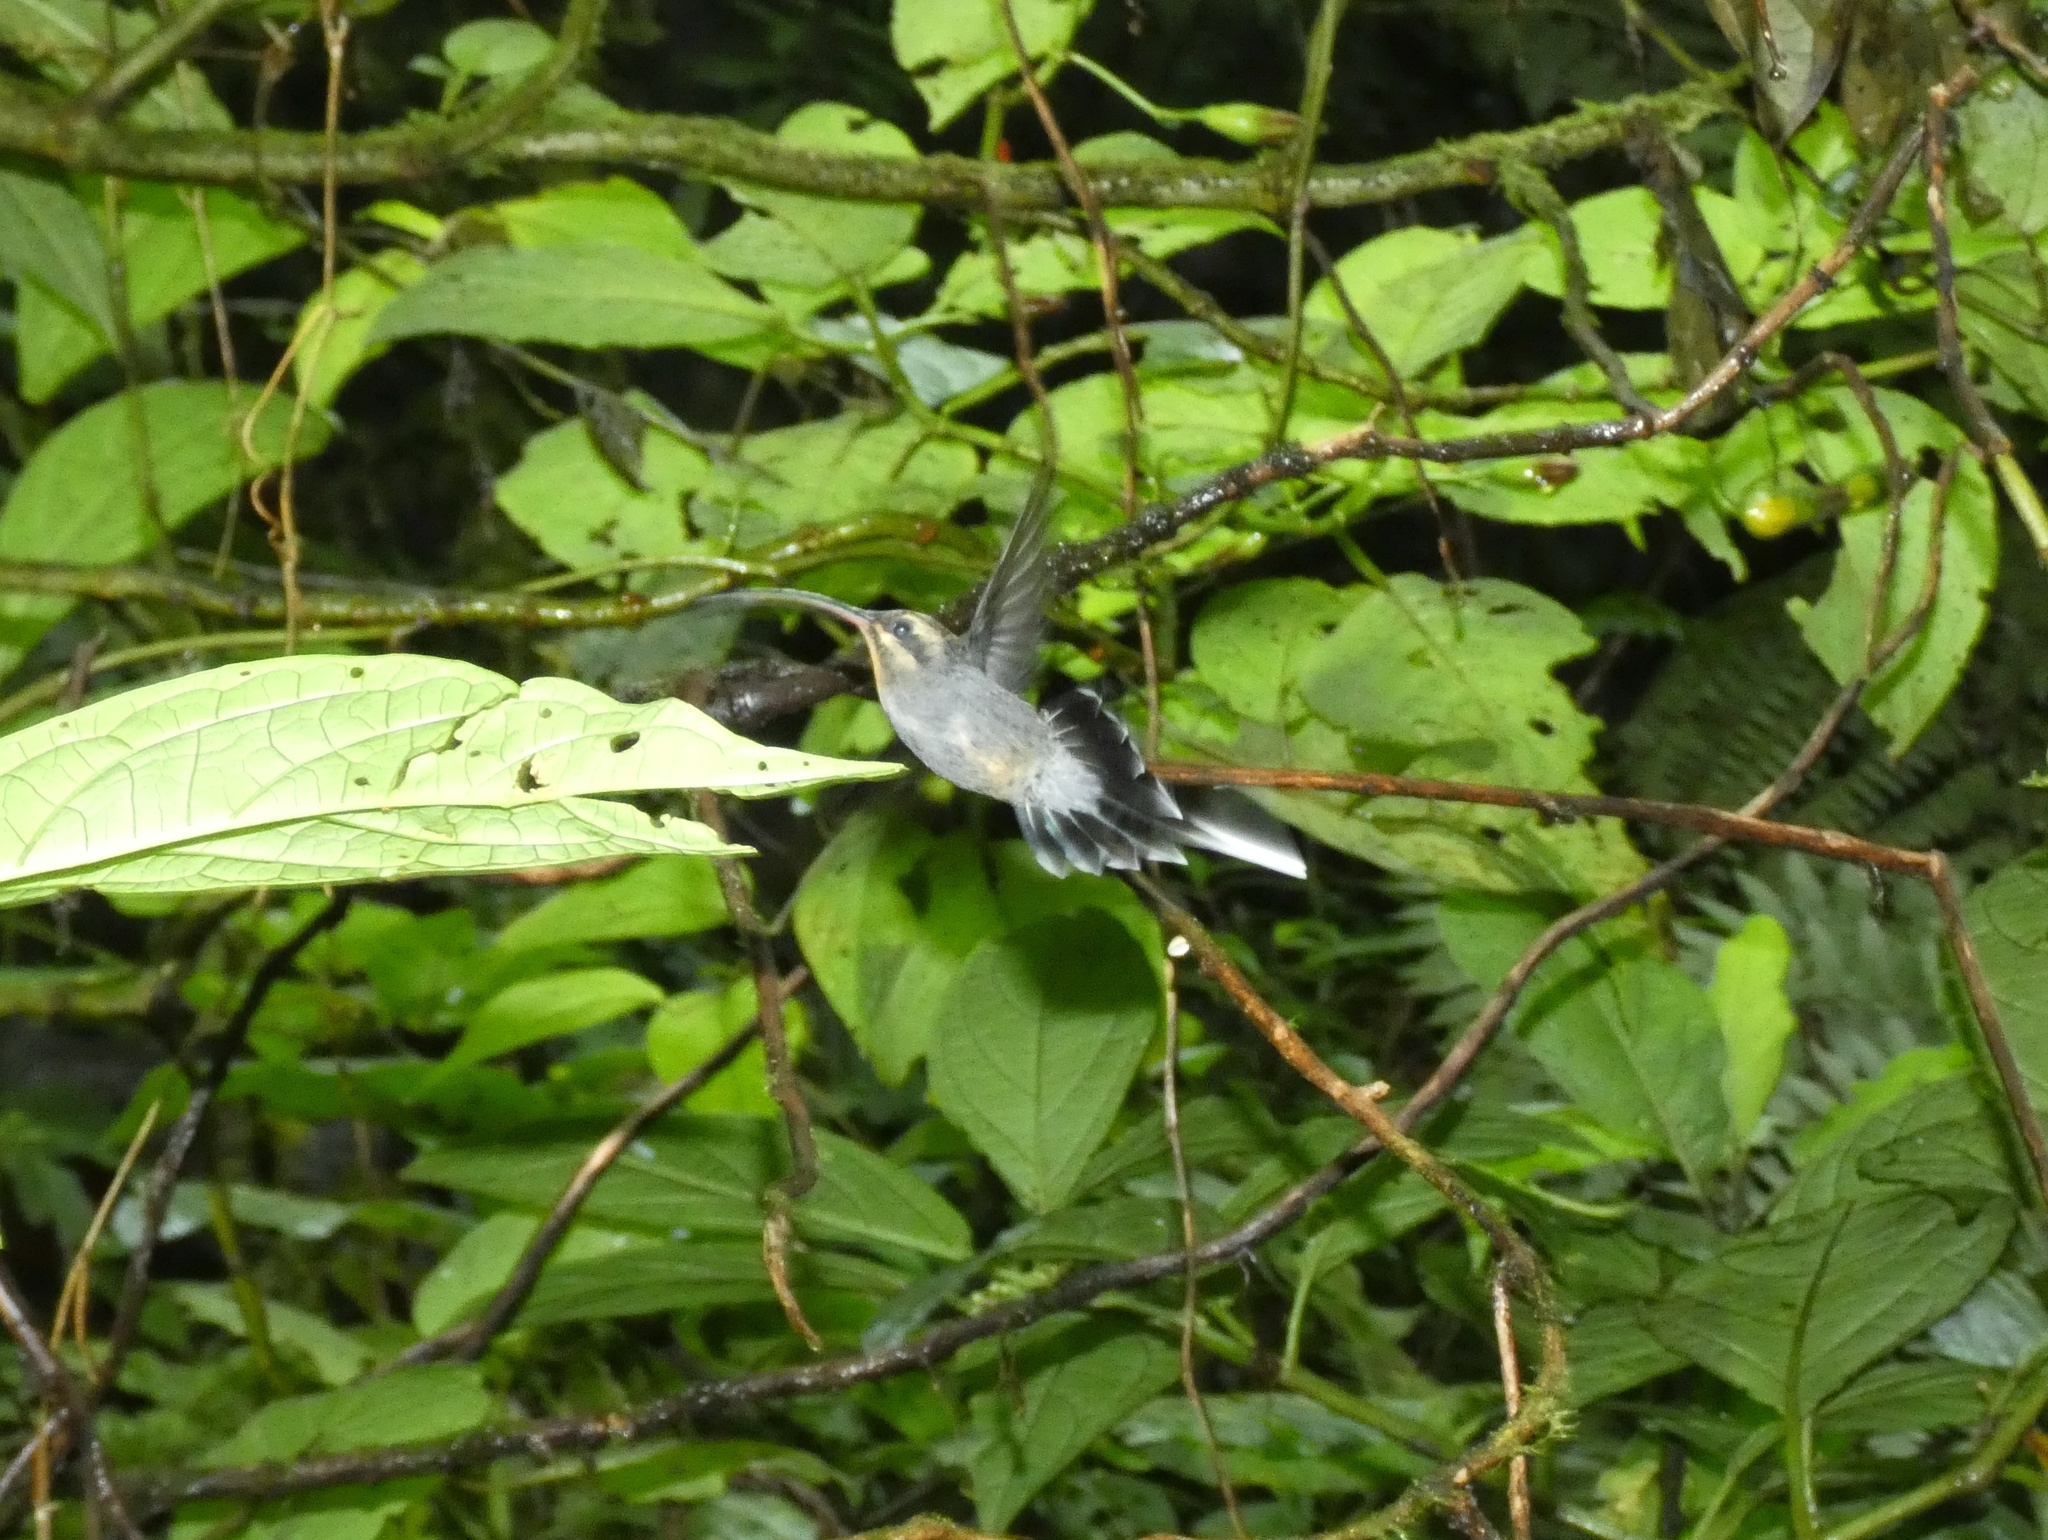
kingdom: Animalia
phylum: Chordata
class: Aves
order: Apodiformes
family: Trochilidae
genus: Phaethornis
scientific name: Phaethornis guy
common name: Green hermit
